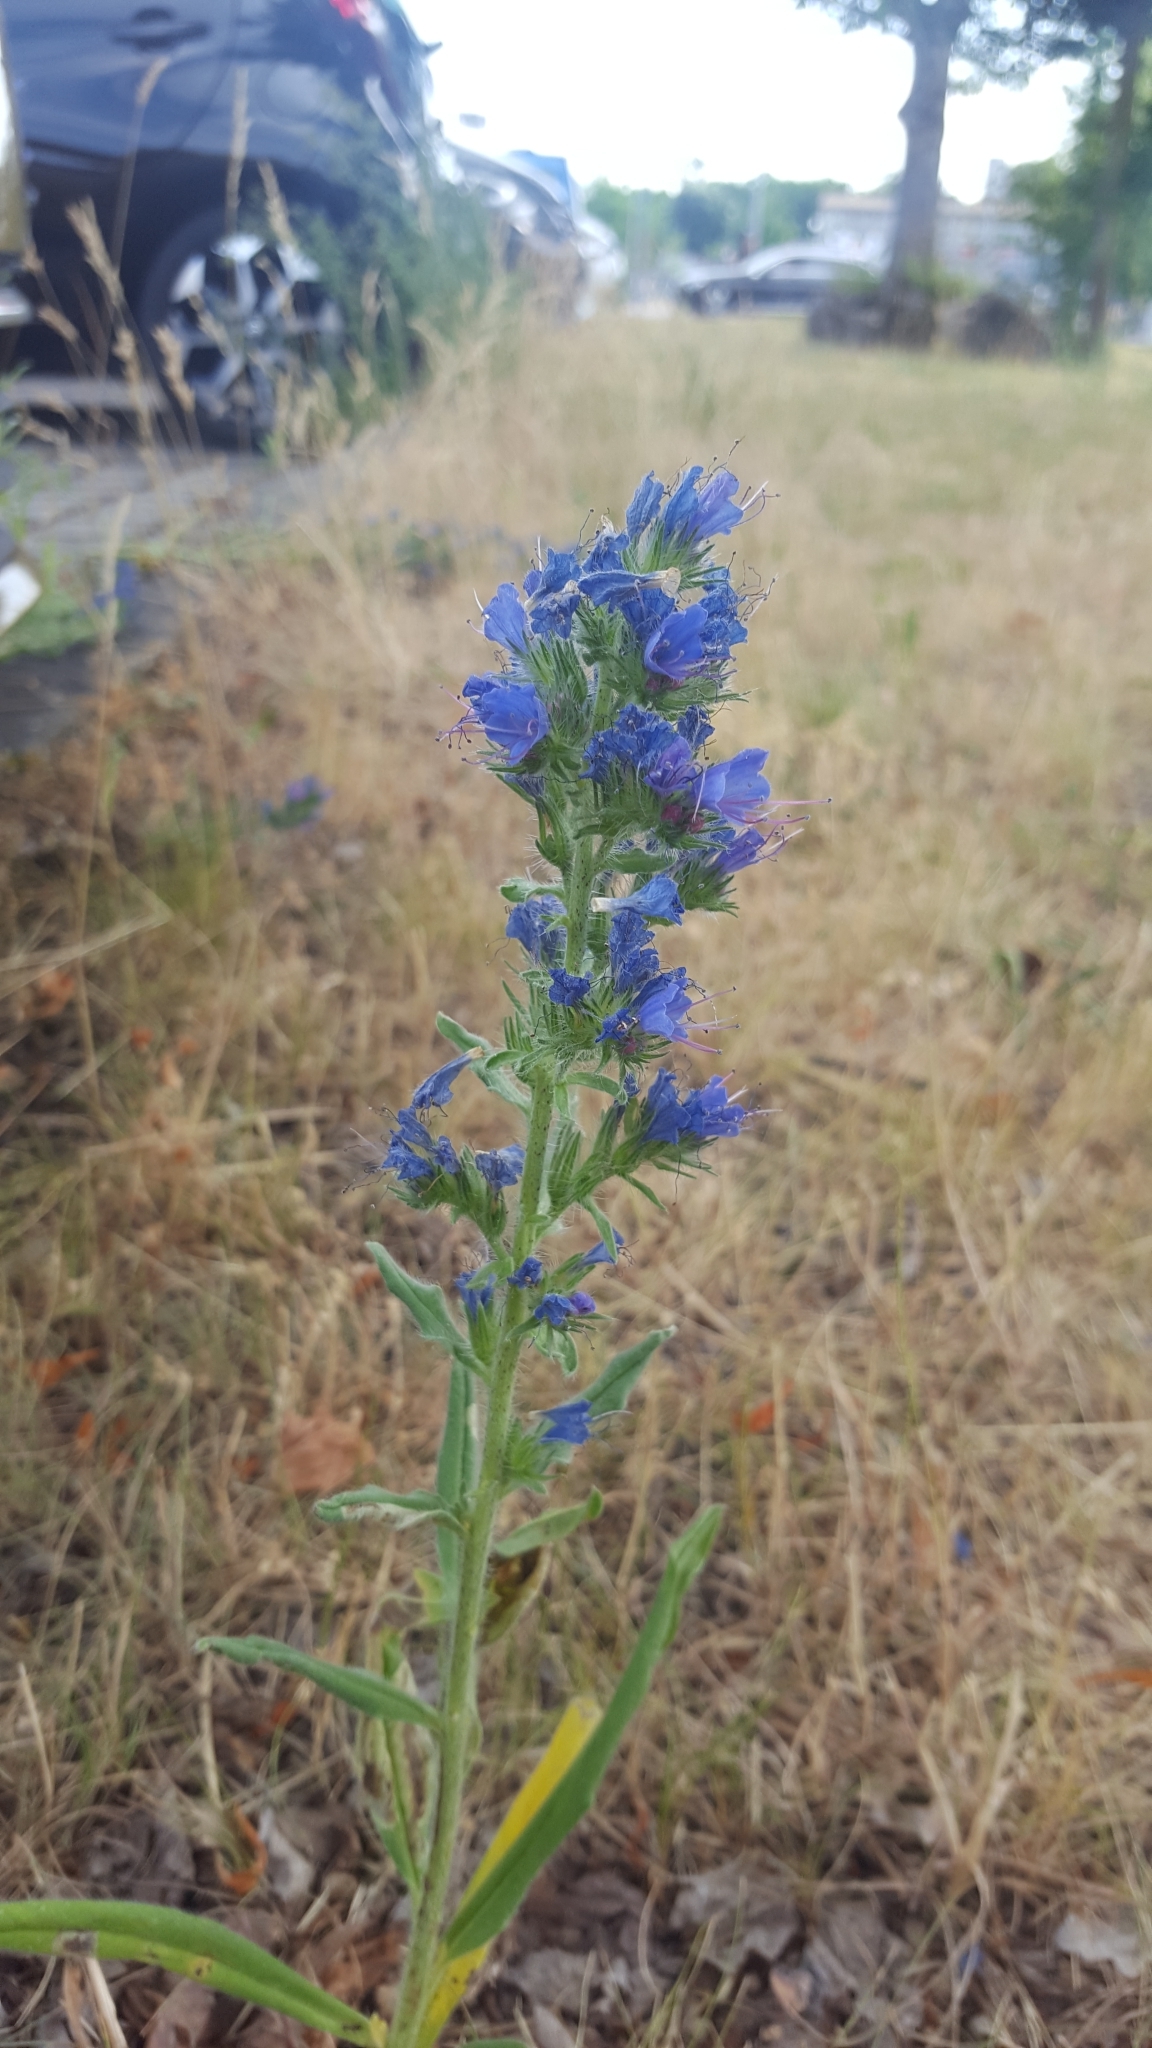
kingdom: Plantae
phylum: Tracheophyta
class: Magnoliopsida
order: Boraginales
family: Boraginaceae
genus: Echium
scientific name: Echium vulgare
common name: Common viper's bugloss
